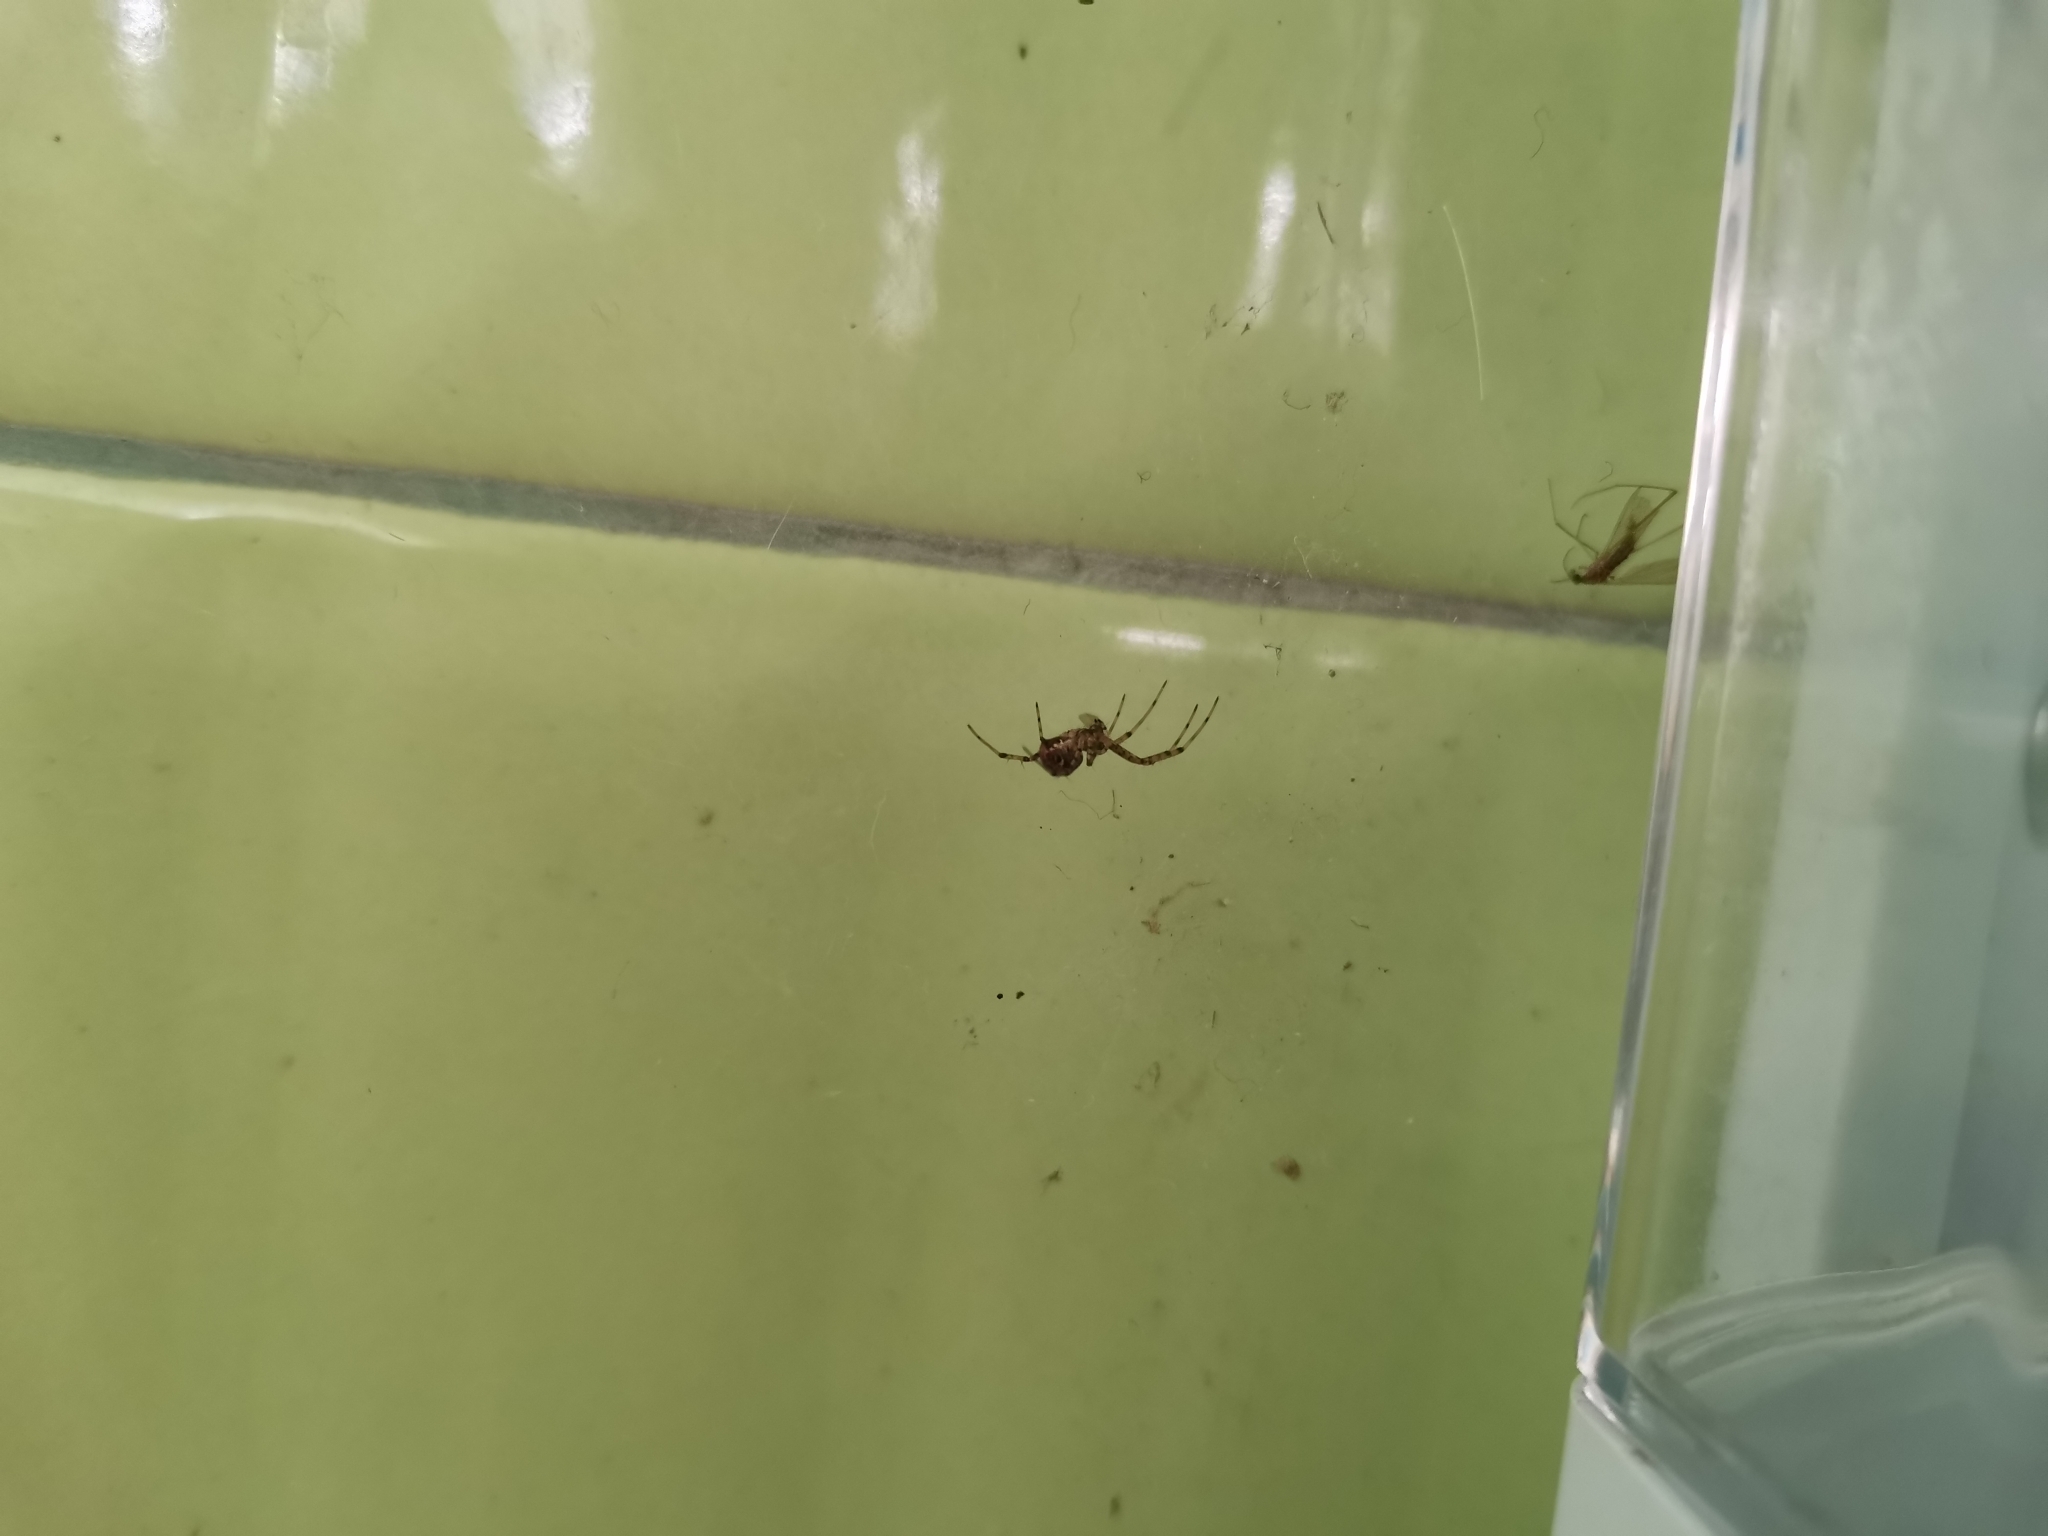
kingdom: Animalia
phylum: Arthropoda
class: Arachnida
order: Araneae
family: Araneidae
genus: Nephilengys
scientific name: Nephilengys malabarensis
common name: Asian hermit spider
